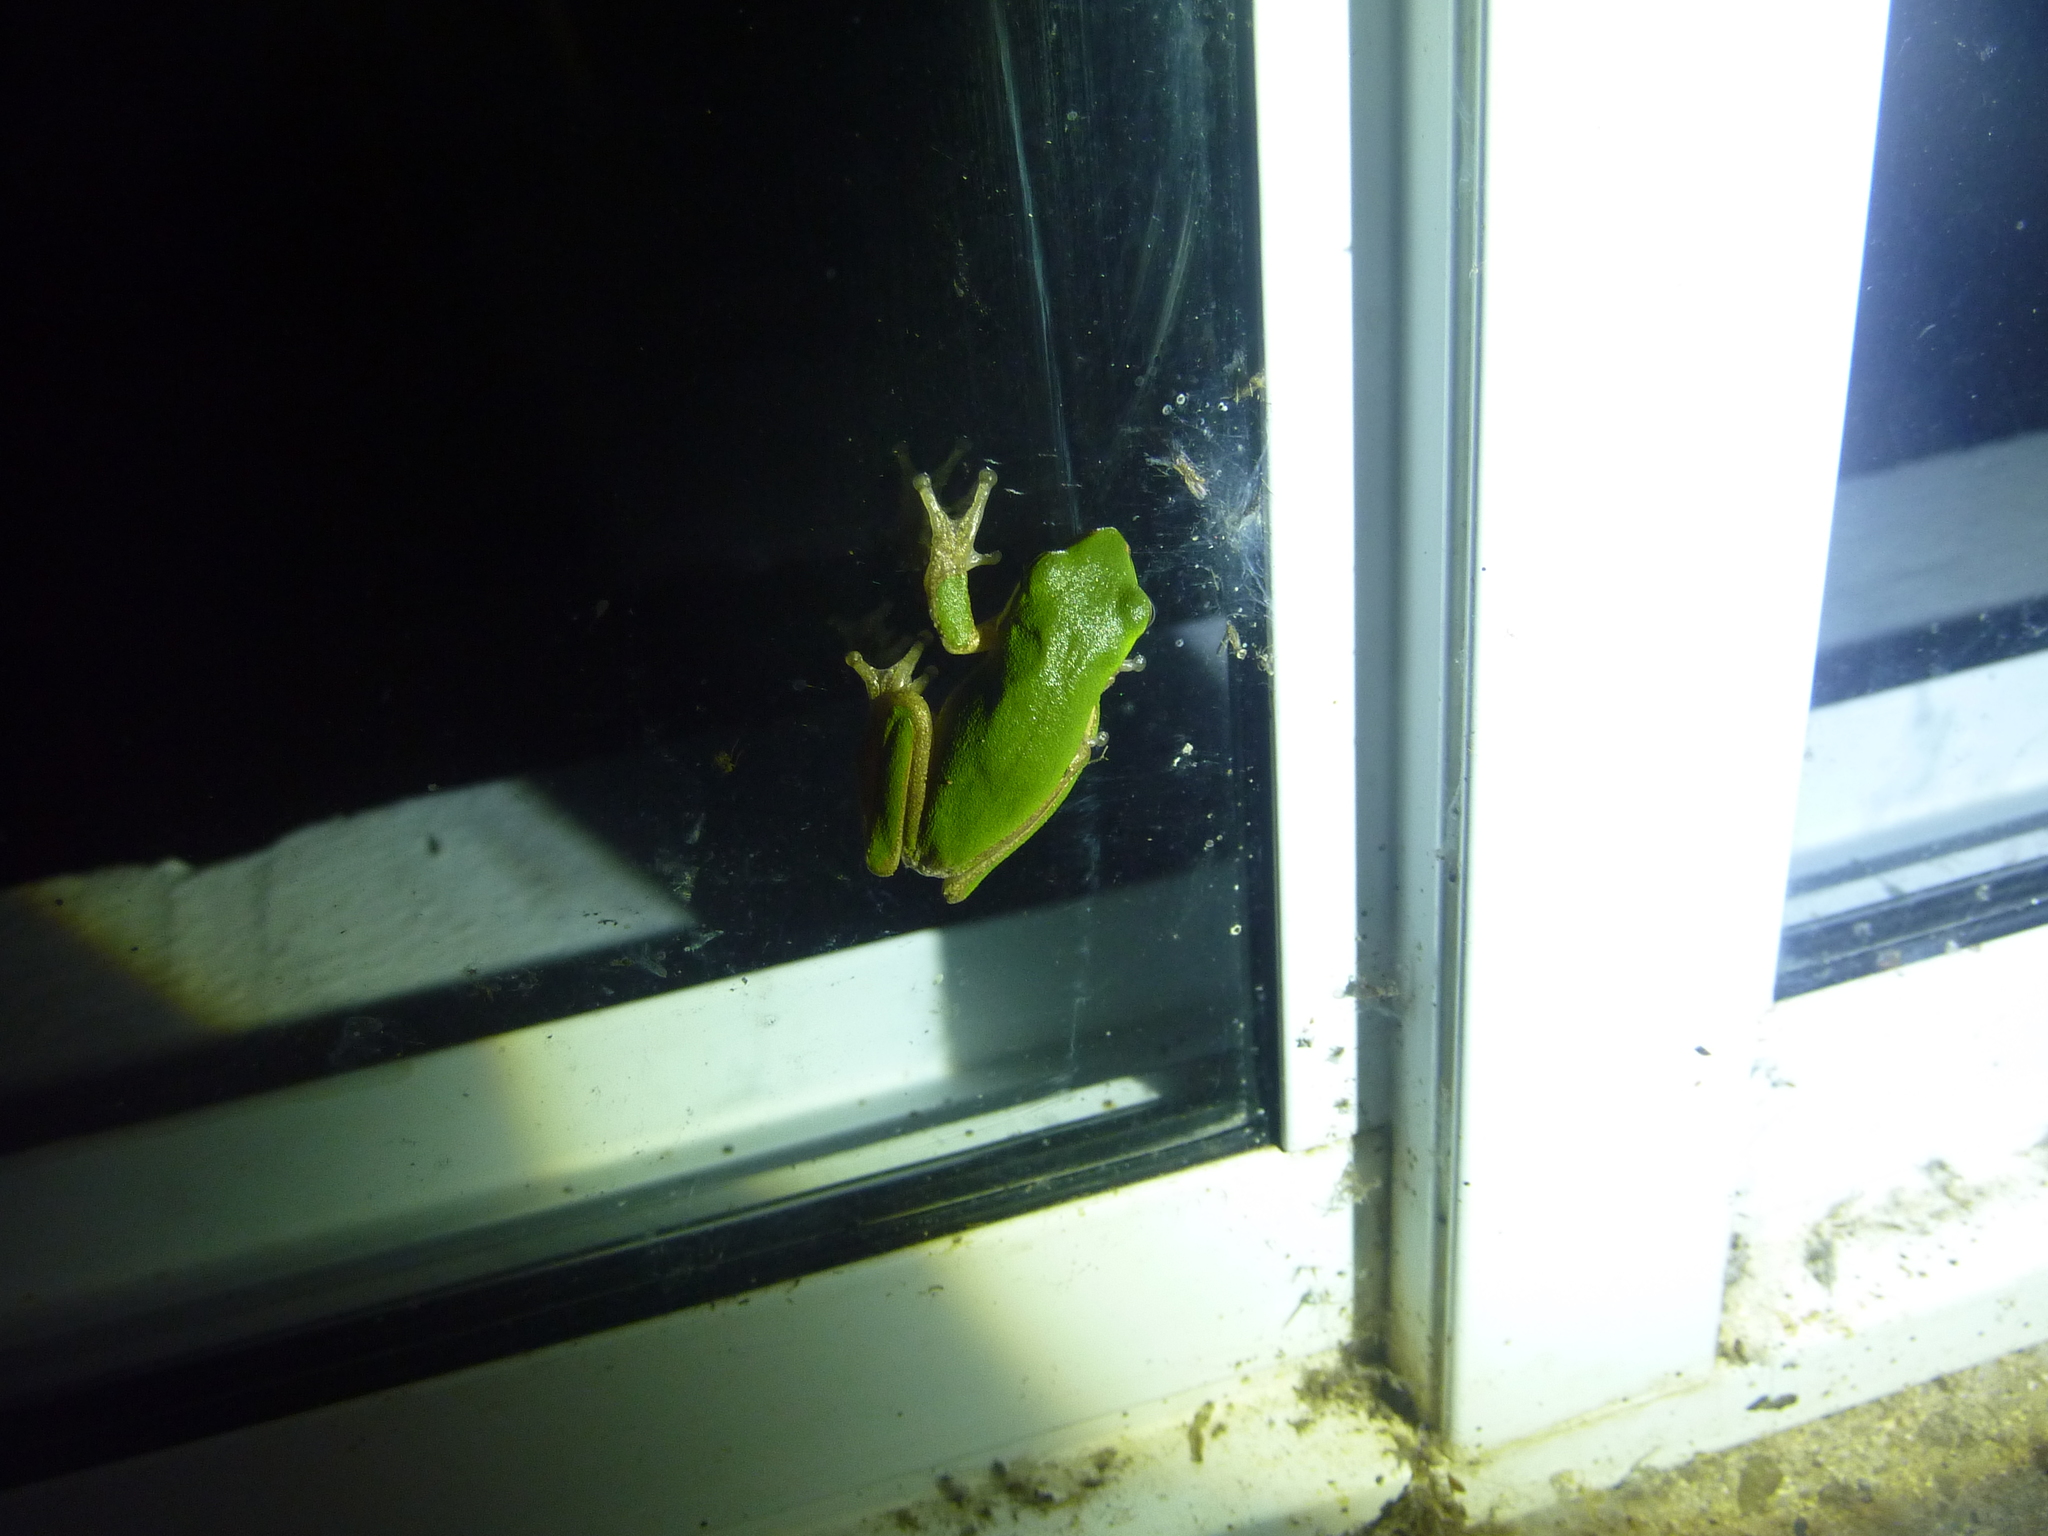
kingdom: Animalia
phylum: Chordata
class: Amphibia
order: Anura
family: Pelodryadidae
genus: Litoria
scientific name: Litoria fallax
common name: Eastern dwarf treefrog
